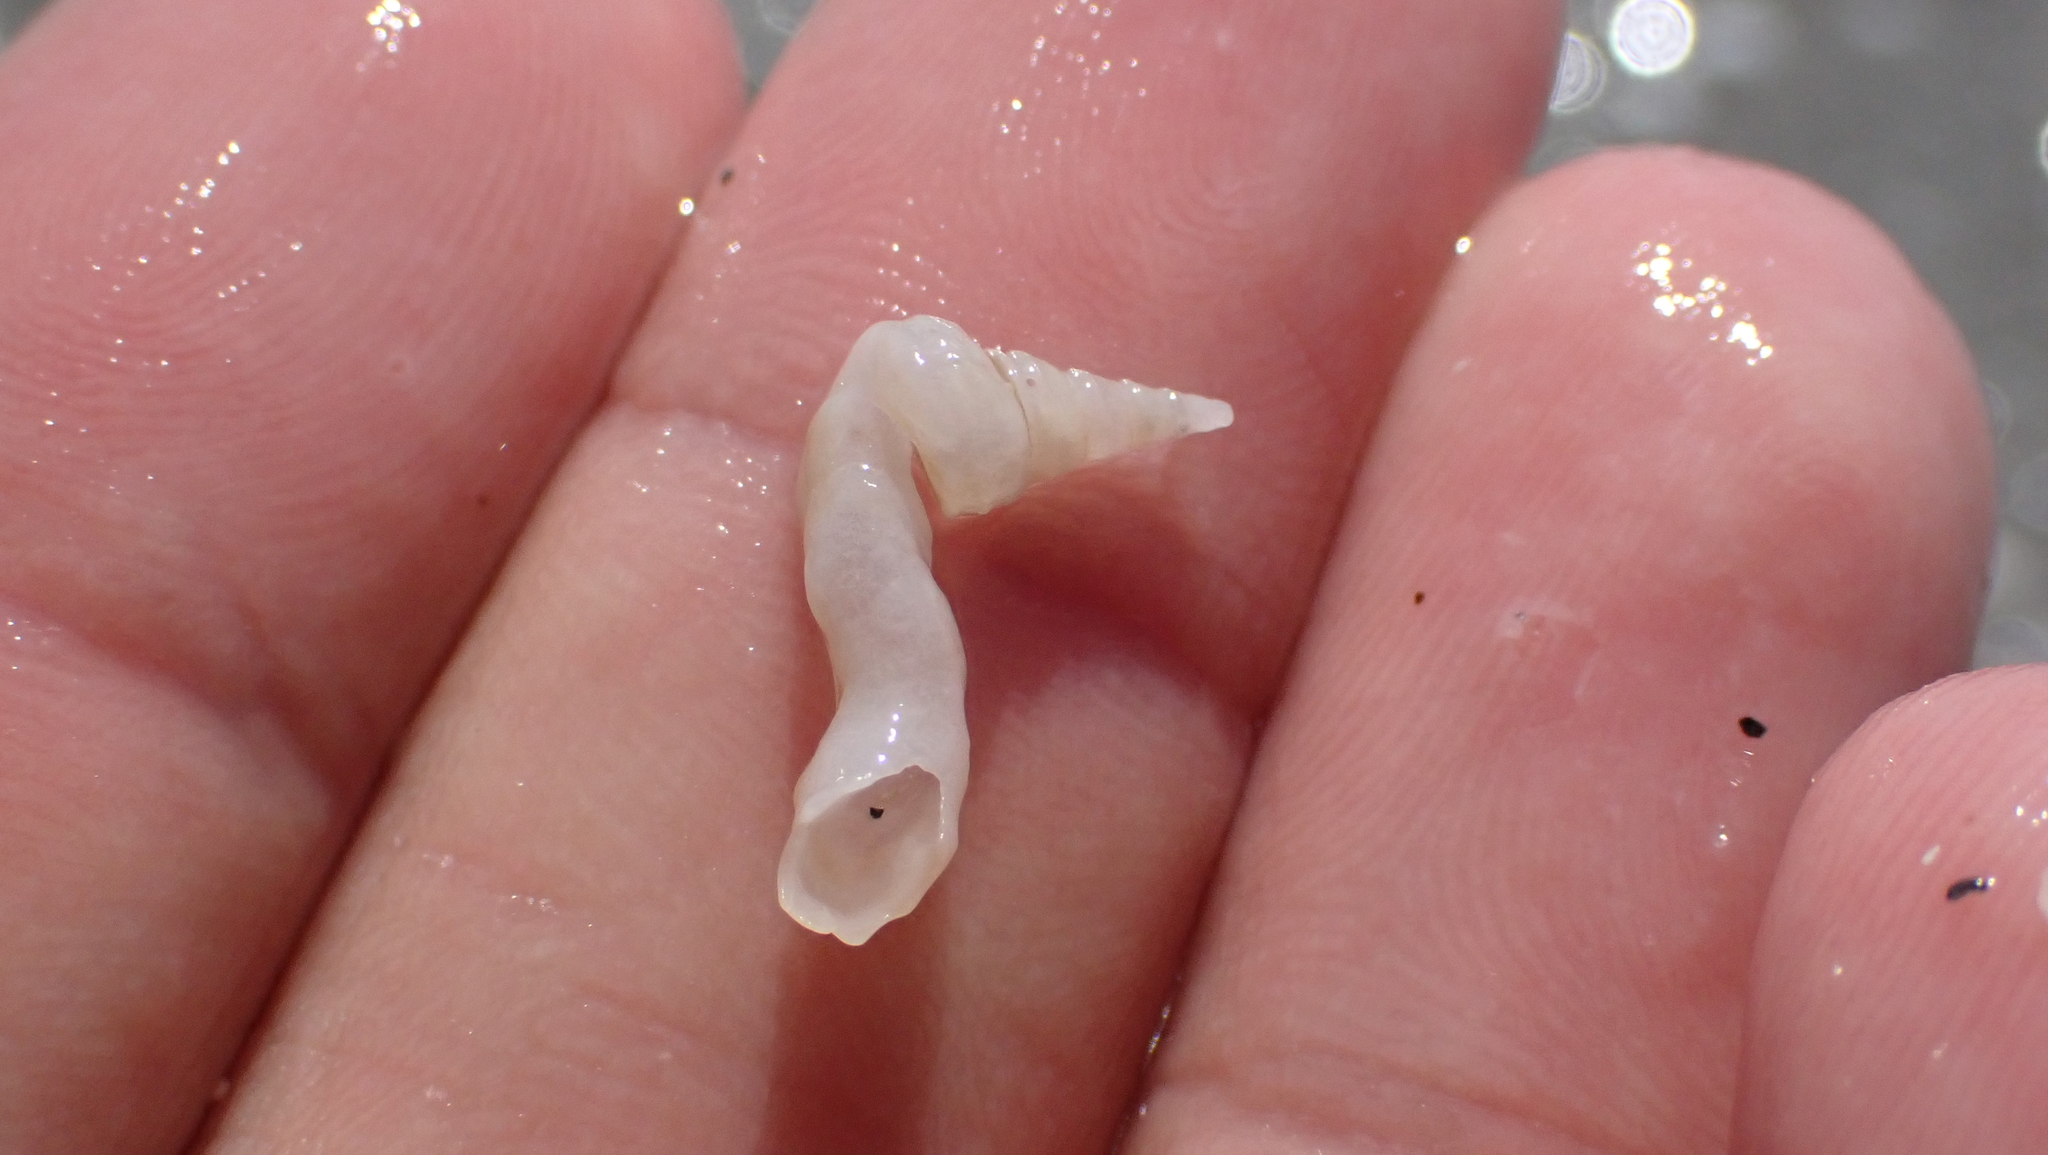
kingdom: Animalia
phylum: Mollusca
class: Gastropoda
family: Turritellidae
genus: Vermicularia
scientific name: Vermicularia fargoi
